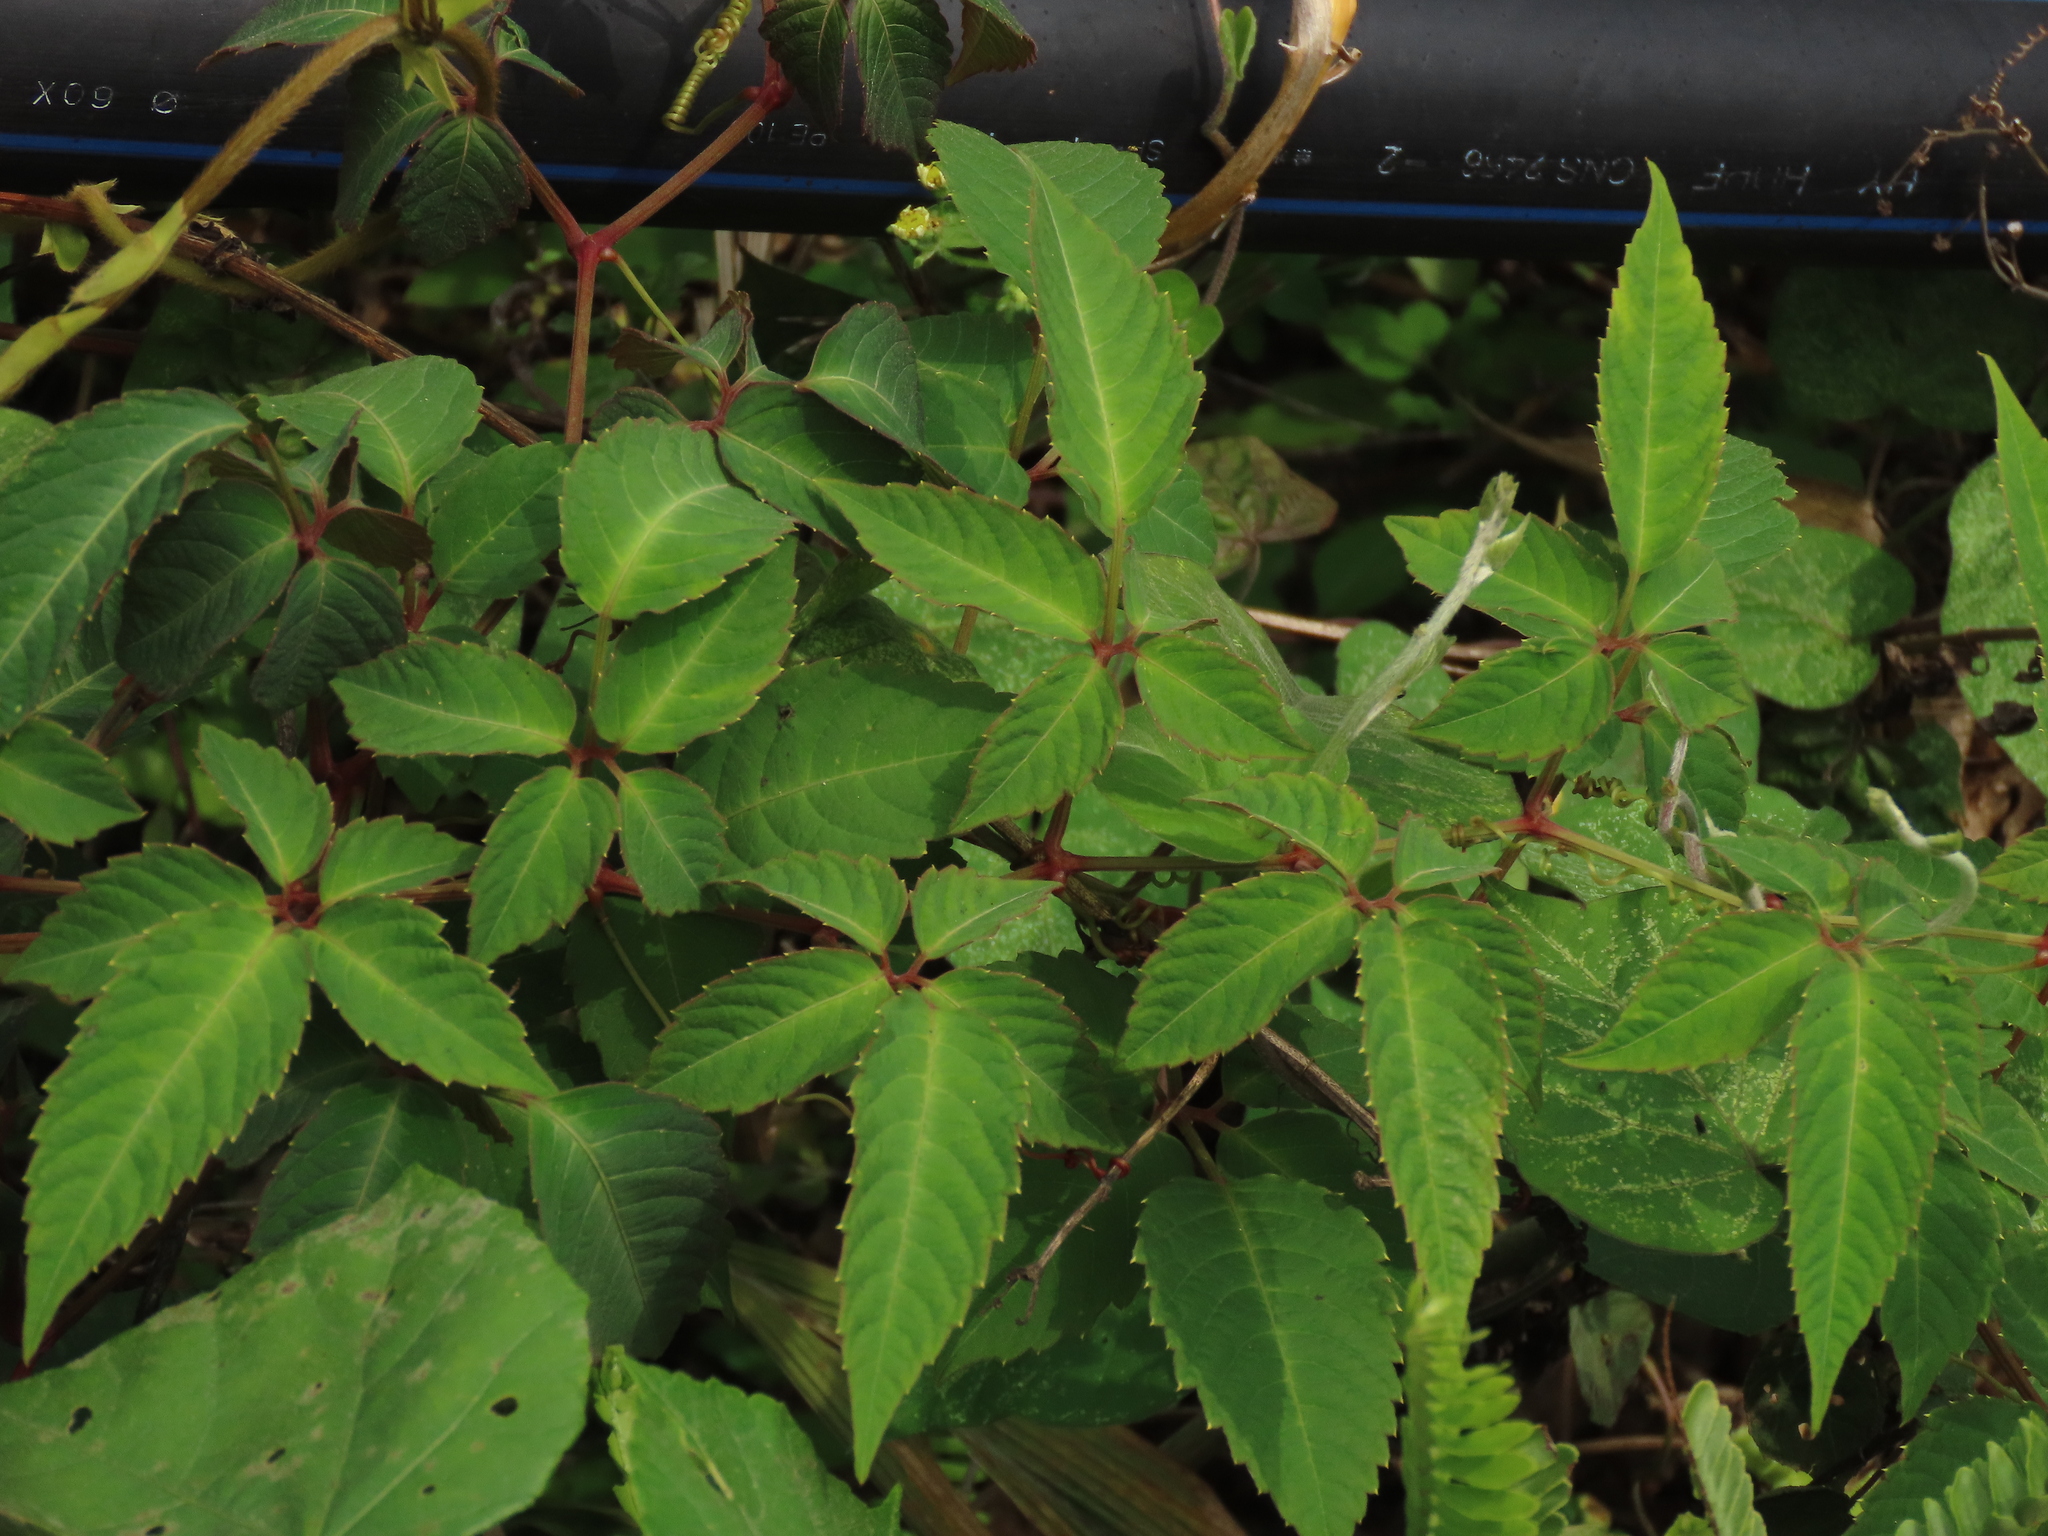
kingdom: Plantae
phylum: Tracheophyta
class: Magnoliopsida
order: Vitales
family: Vitaceae
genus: Pseudocayratia
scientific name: Pseudocayratia pengiana
